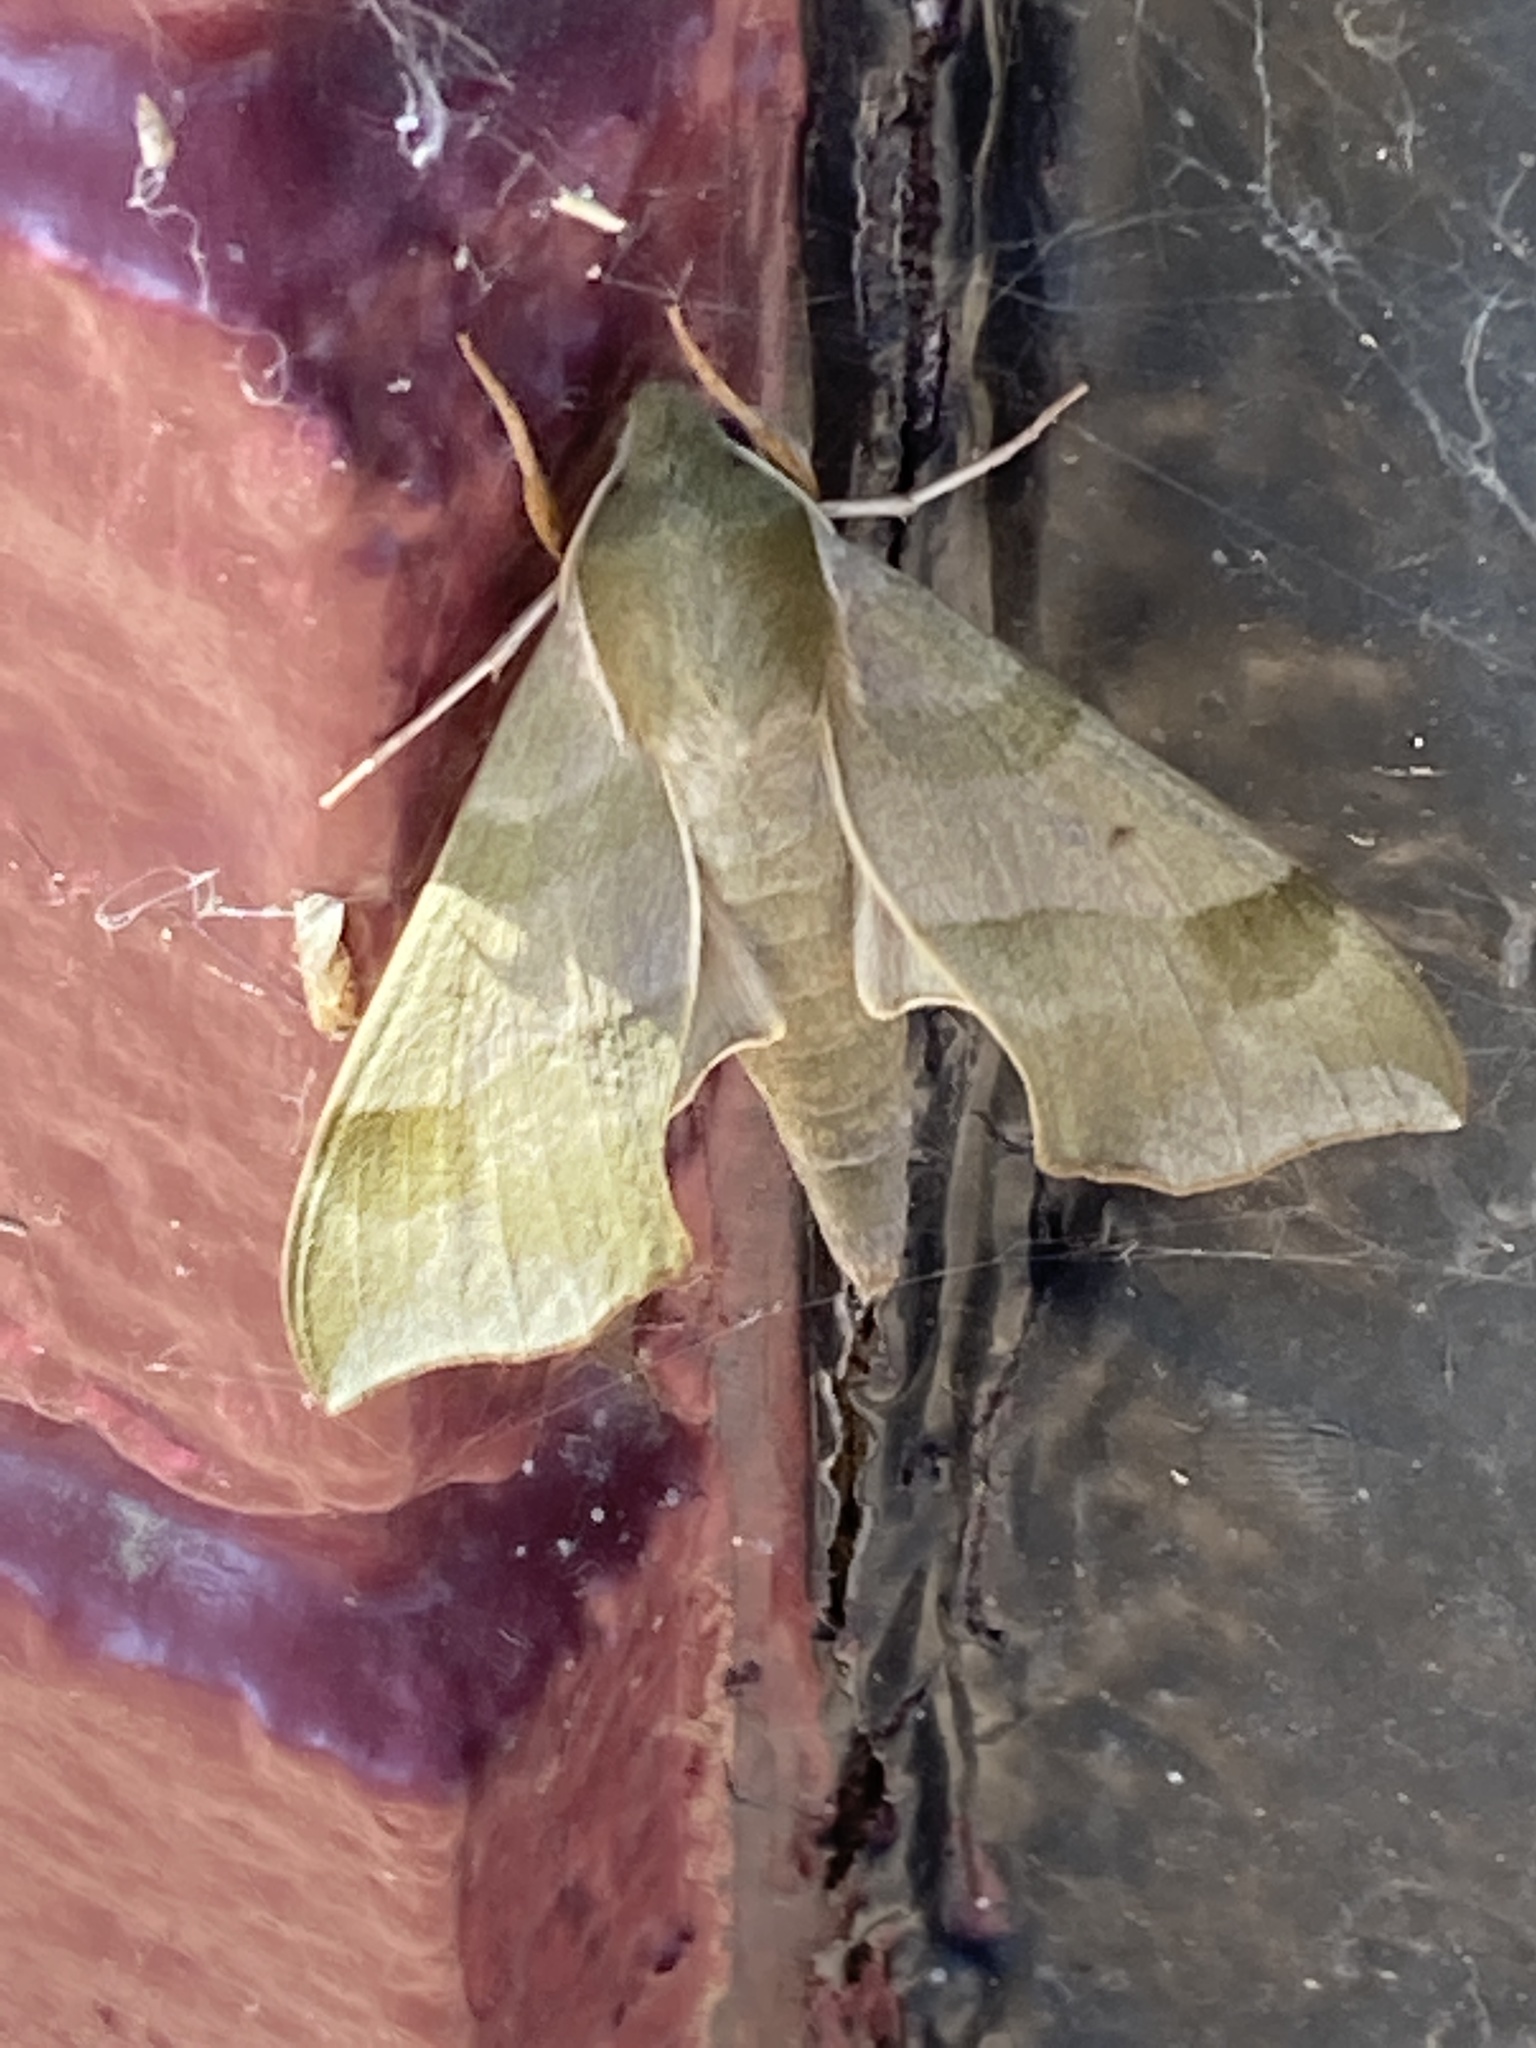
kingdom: Animalia
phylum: Arthropoda
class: Insecta
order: Lepidoptera
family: Sphingidae
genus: Darapsa
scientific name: Darapsa myron
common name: Hog sphinx
